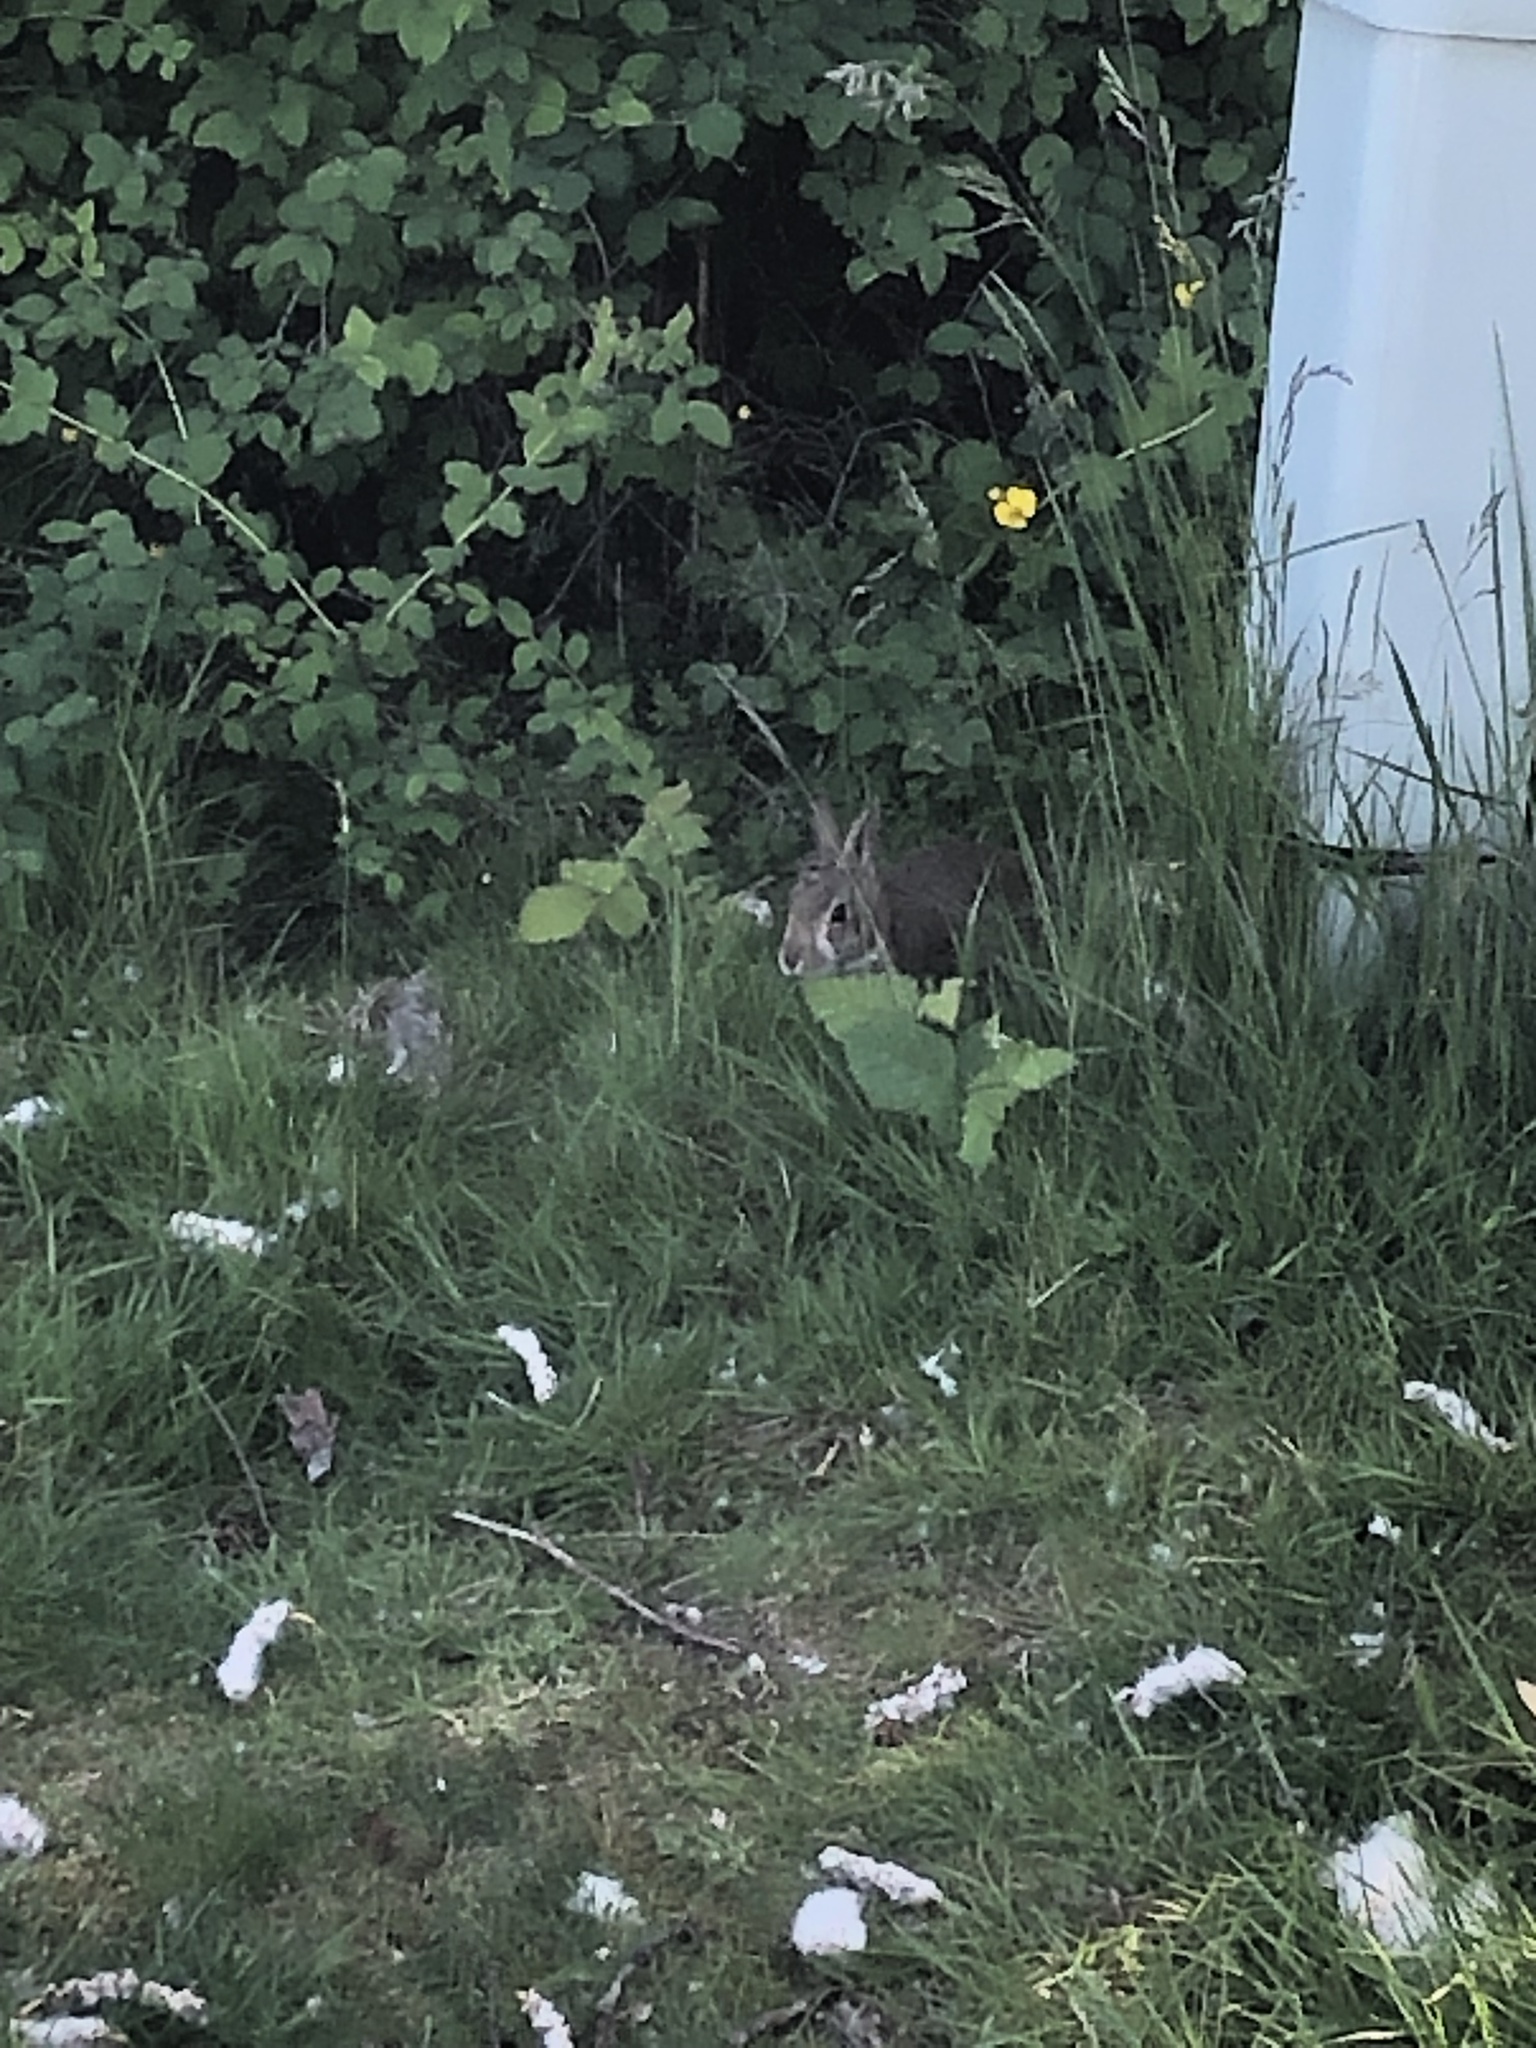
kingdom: Animalia
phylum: Chordata
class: Mammalia
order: Lagomorpha
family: Leporidae
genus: Sylvilagus
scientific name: Sylvilagus floridanus
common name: Eastern cottontail
